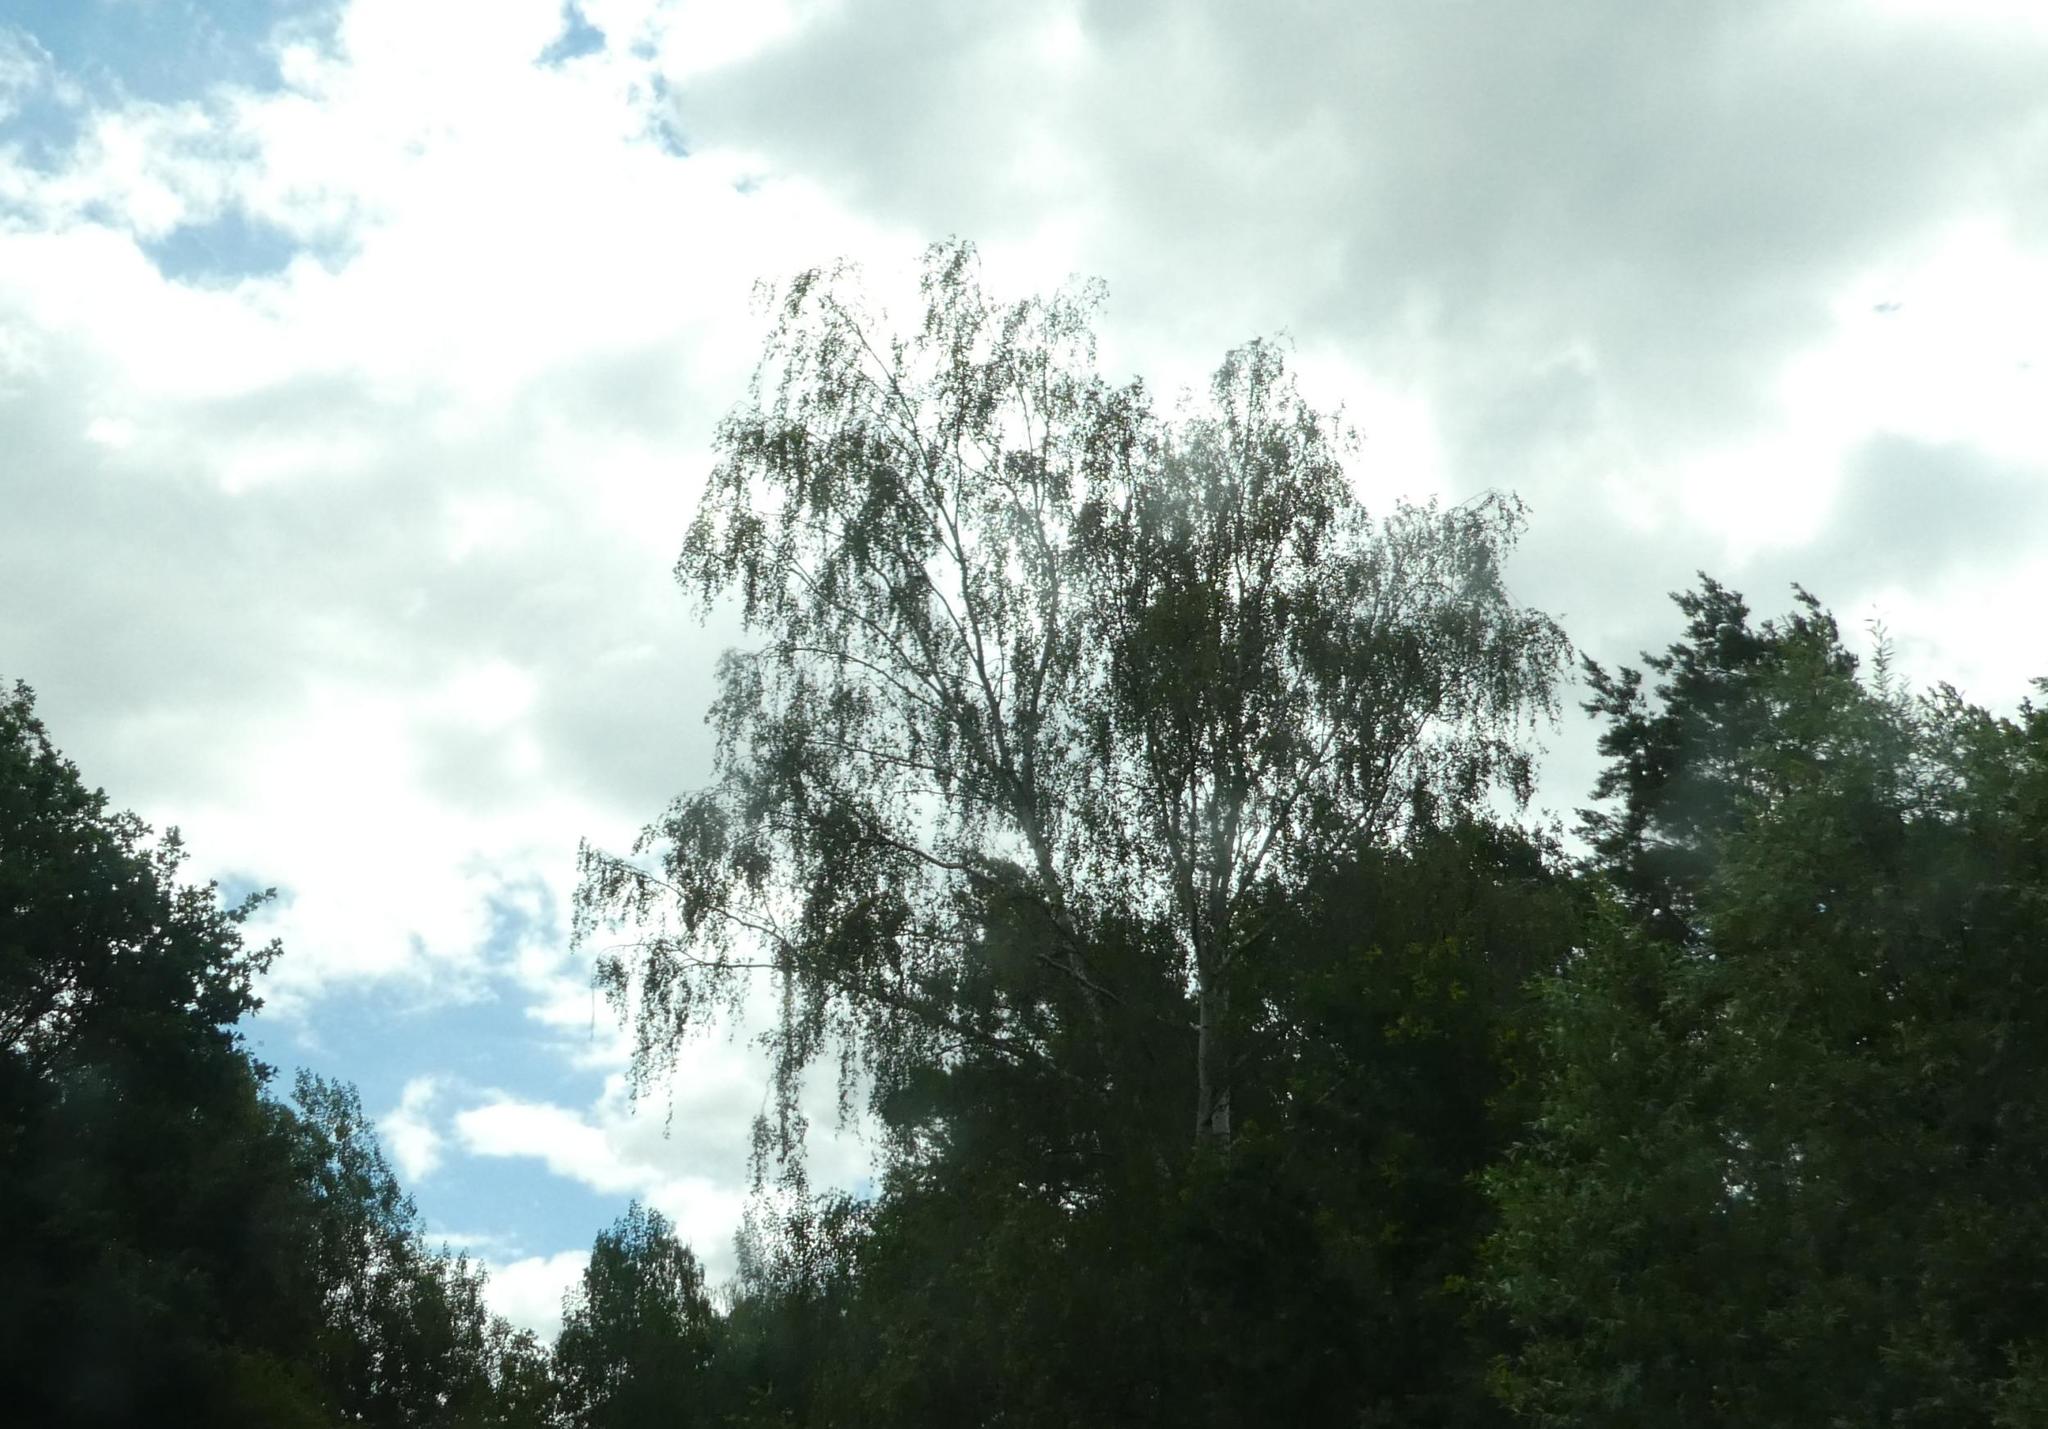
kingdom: Plantae
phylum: Tracheophyta
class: Magnoliopsida
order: Fagales
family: Betulaceae
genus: Betula
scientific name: Betula pendula
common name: Silver birch
